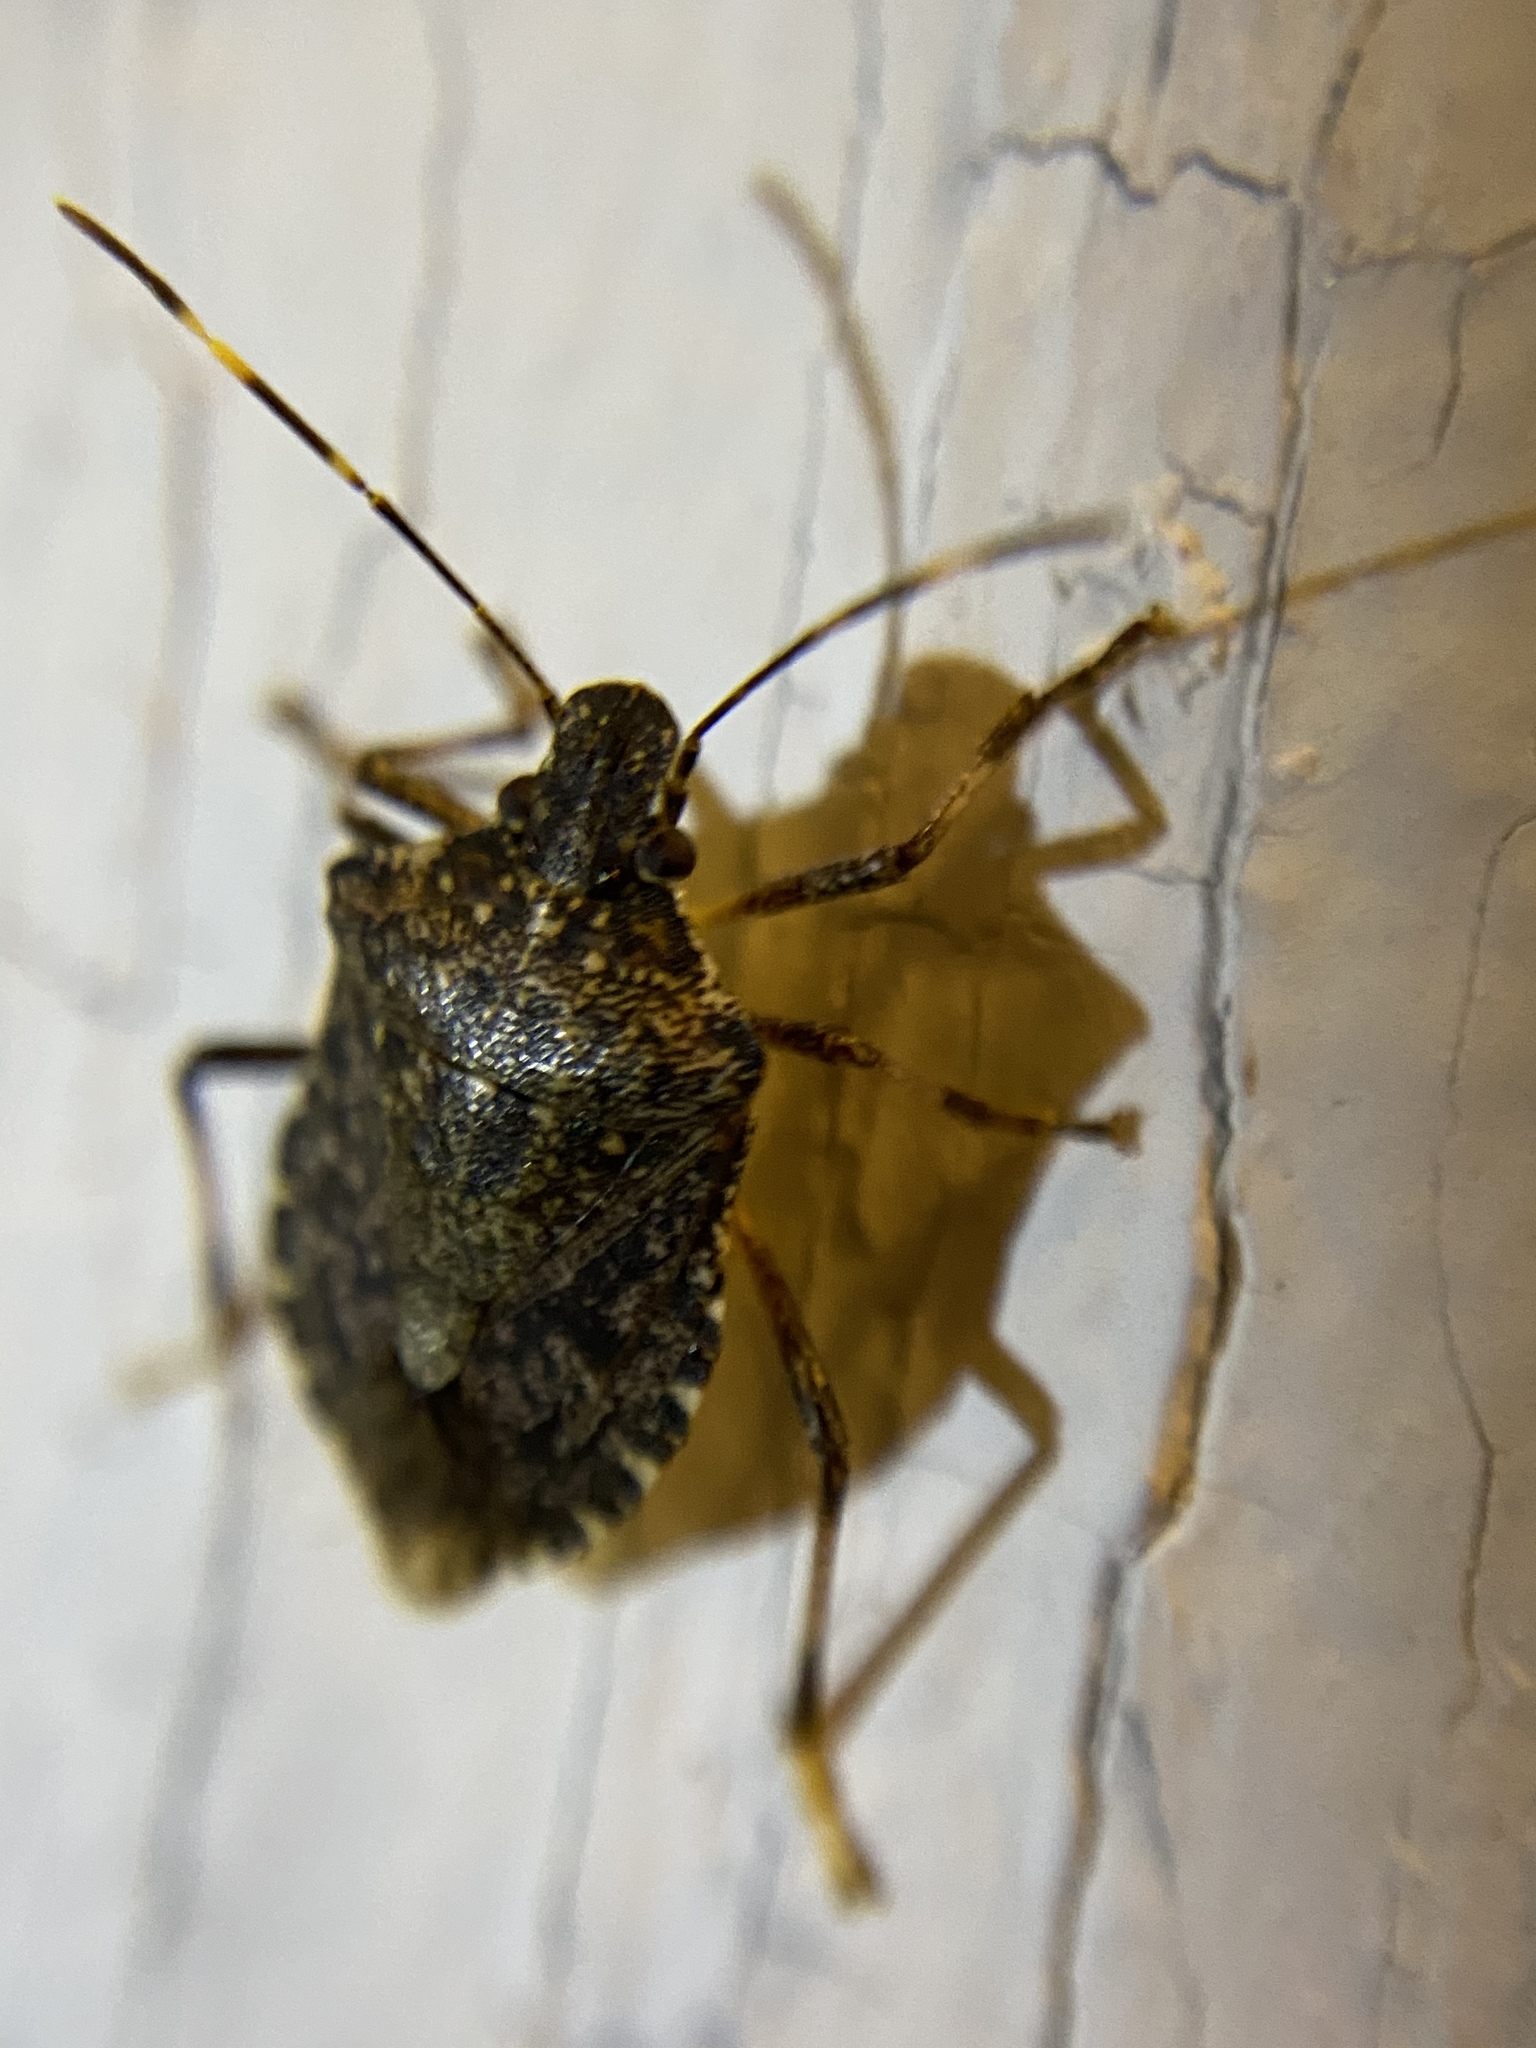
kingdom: Animalia
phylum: Arthropoda
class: Insecta
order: Hemiptera
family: Pentatomidae
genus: Halyomorpha
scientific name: Halyomorpha halys
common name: Brown marmorated stink bug
